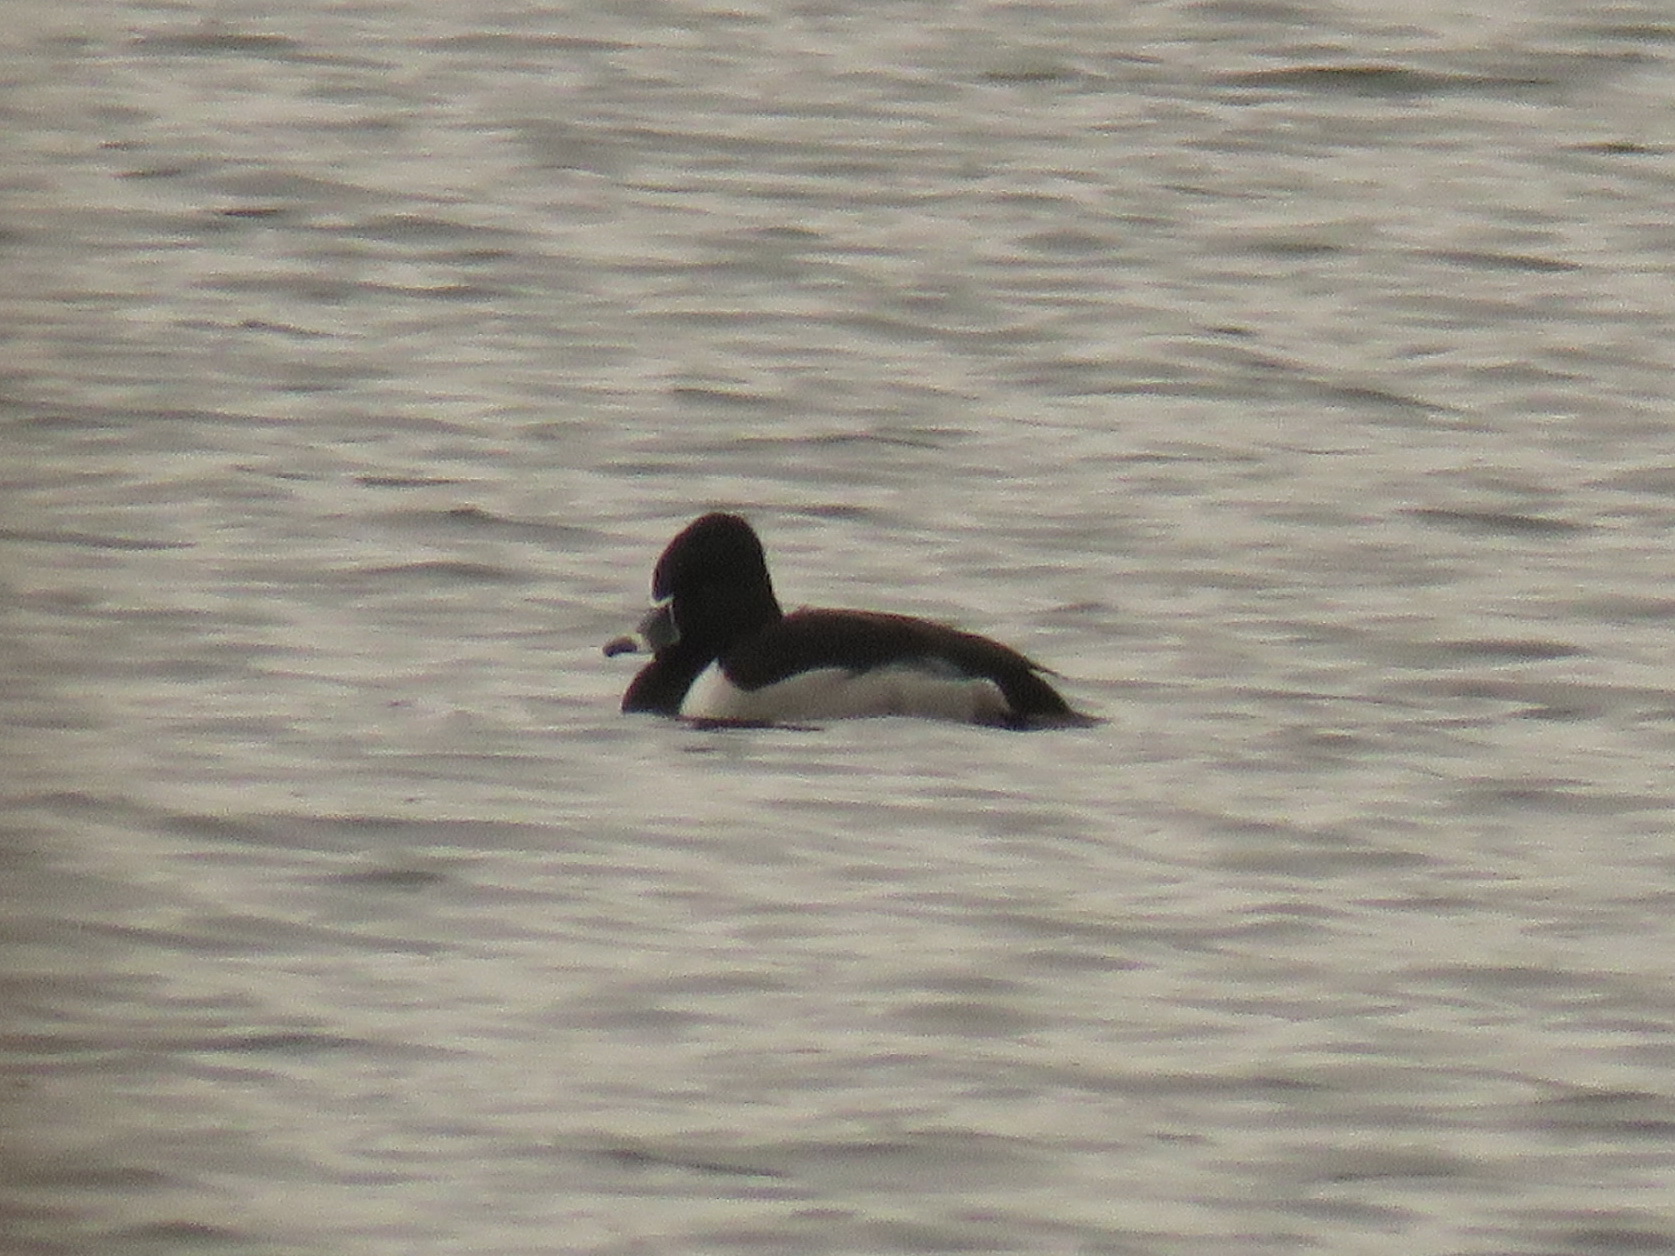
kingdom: Animalia
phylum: Chordata
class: Aves
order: Anseriformes
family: Anatidae
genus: Aythya
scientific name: Aythya collaris
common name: Ring-necked duck
